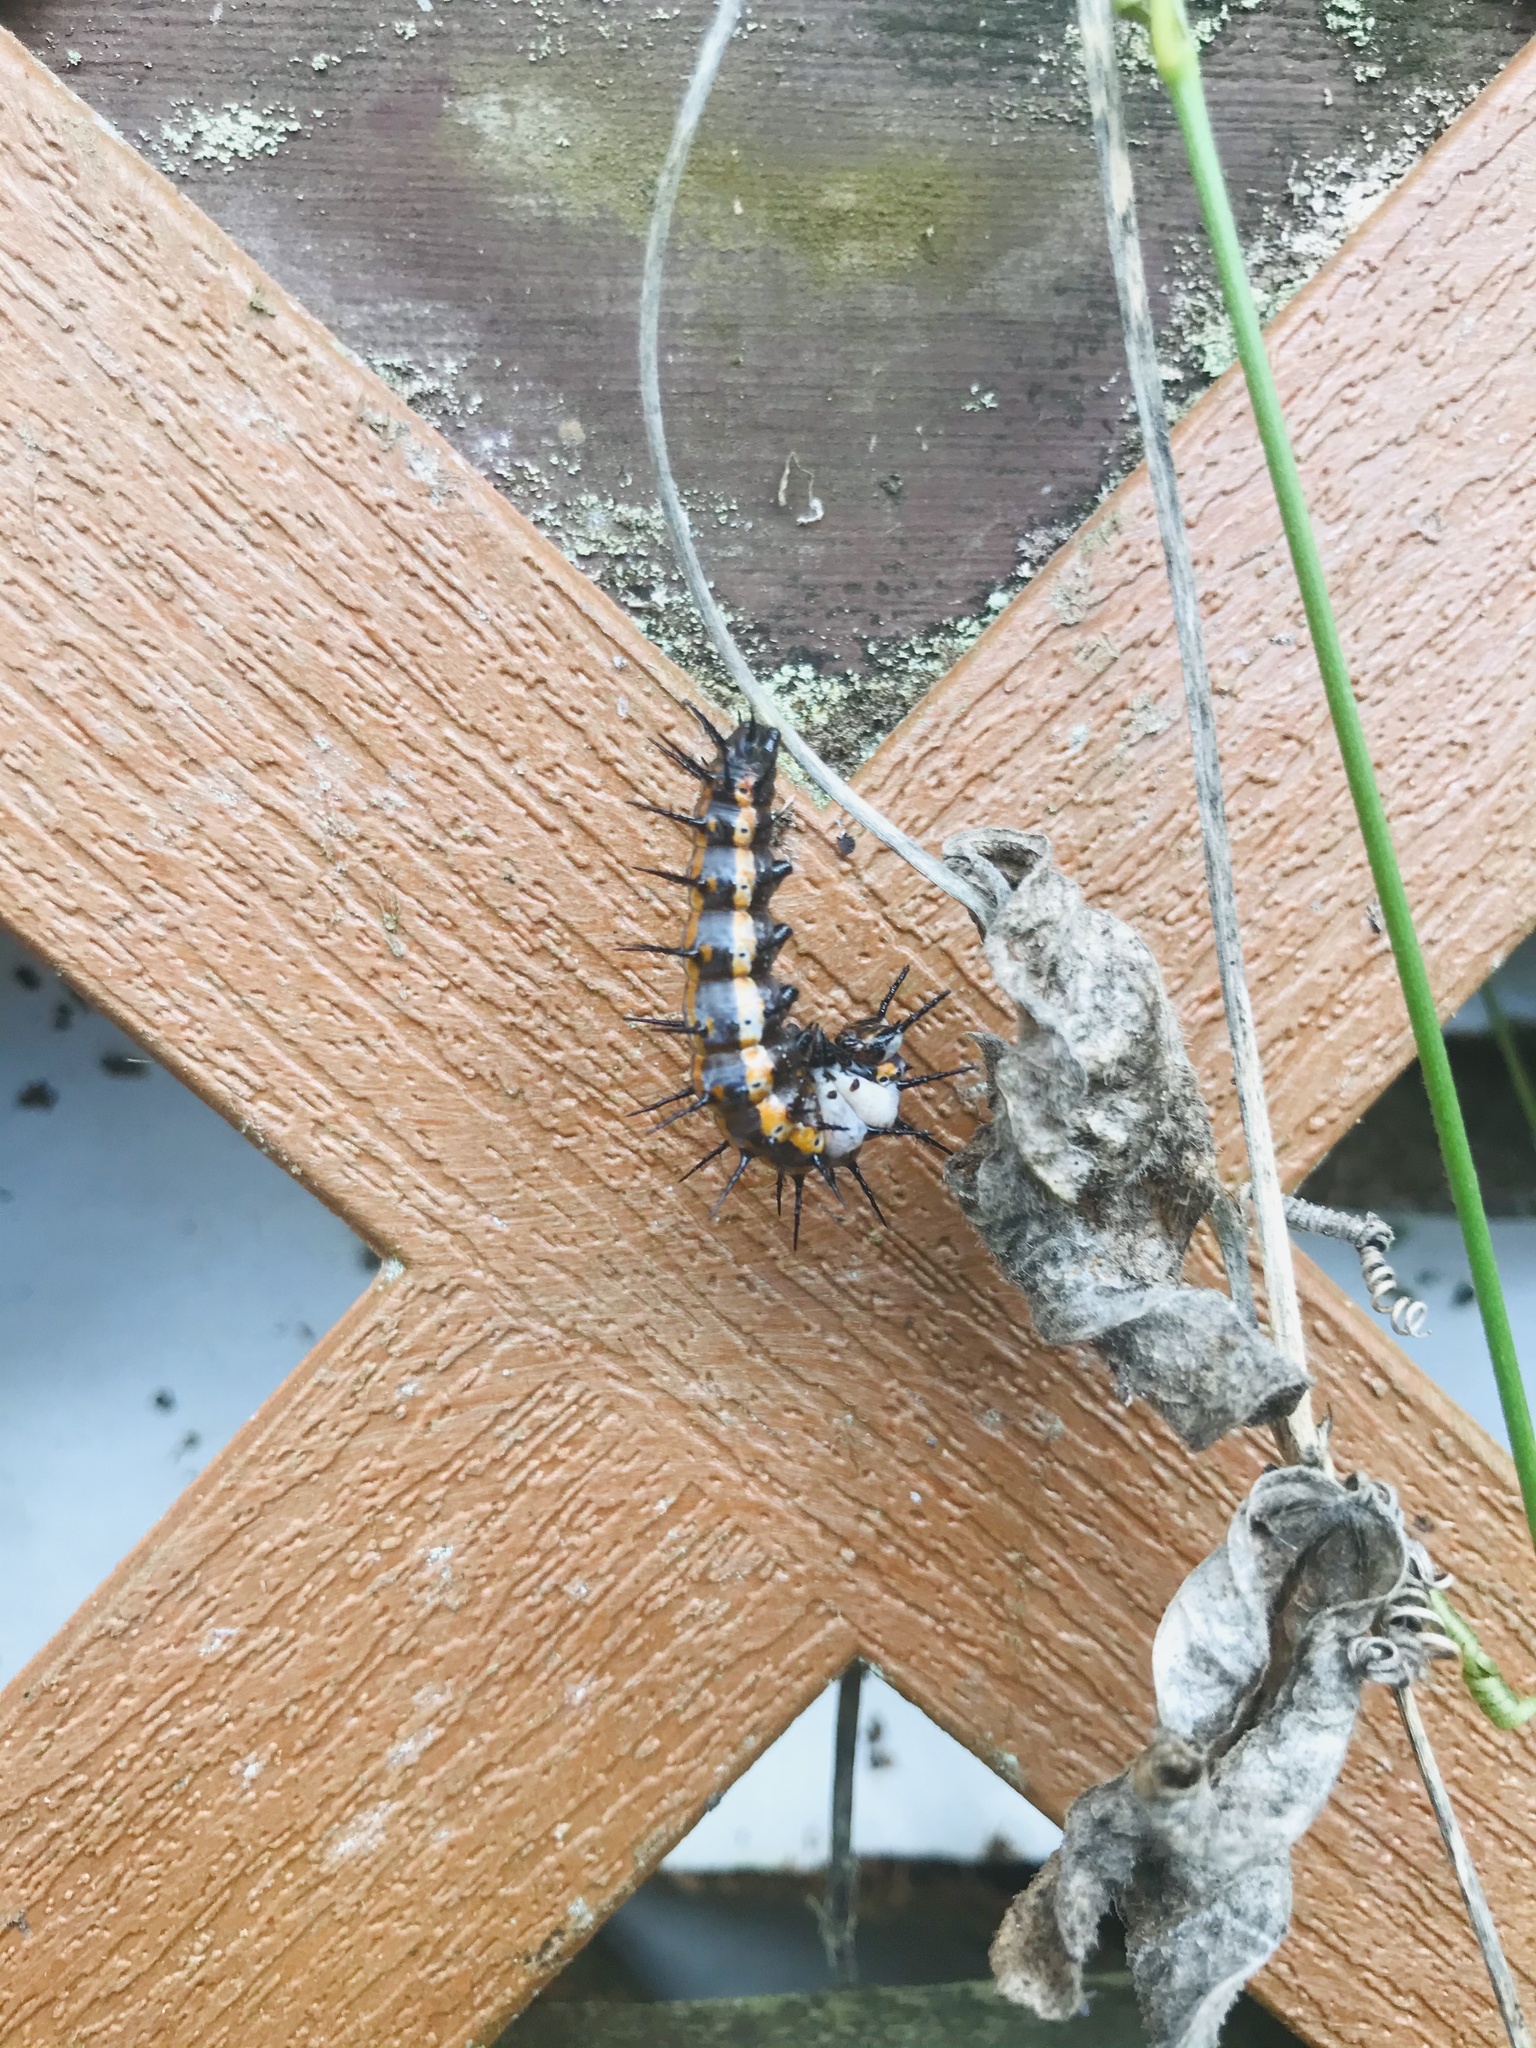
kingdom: Animalia
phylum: Arthropoda
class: Insecta
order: Lepidoptera
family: Nymphalidae
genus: Dione
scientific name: Dione vanillae
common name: Gulf fritillary
